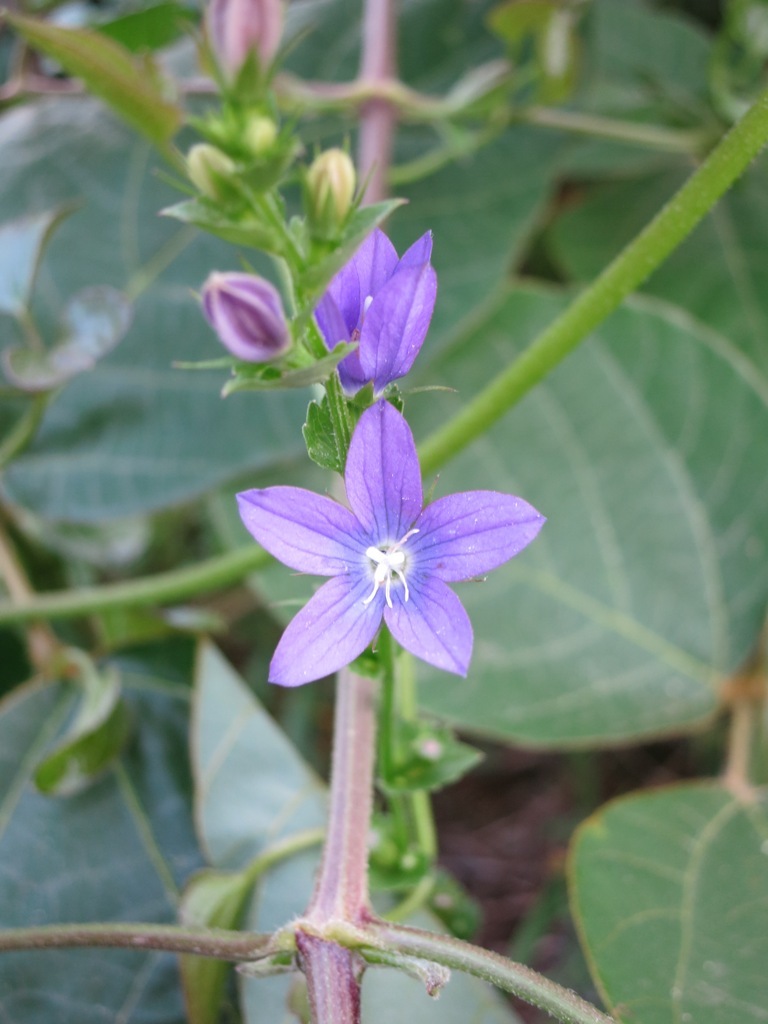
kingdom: Plantae
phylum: Tracheophyta
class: Magnoliopsida
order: Asterales
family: Campanulaceae
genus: Triodanis
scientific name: Triodanis perfoliata
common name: Clasping venus' looking-glass
